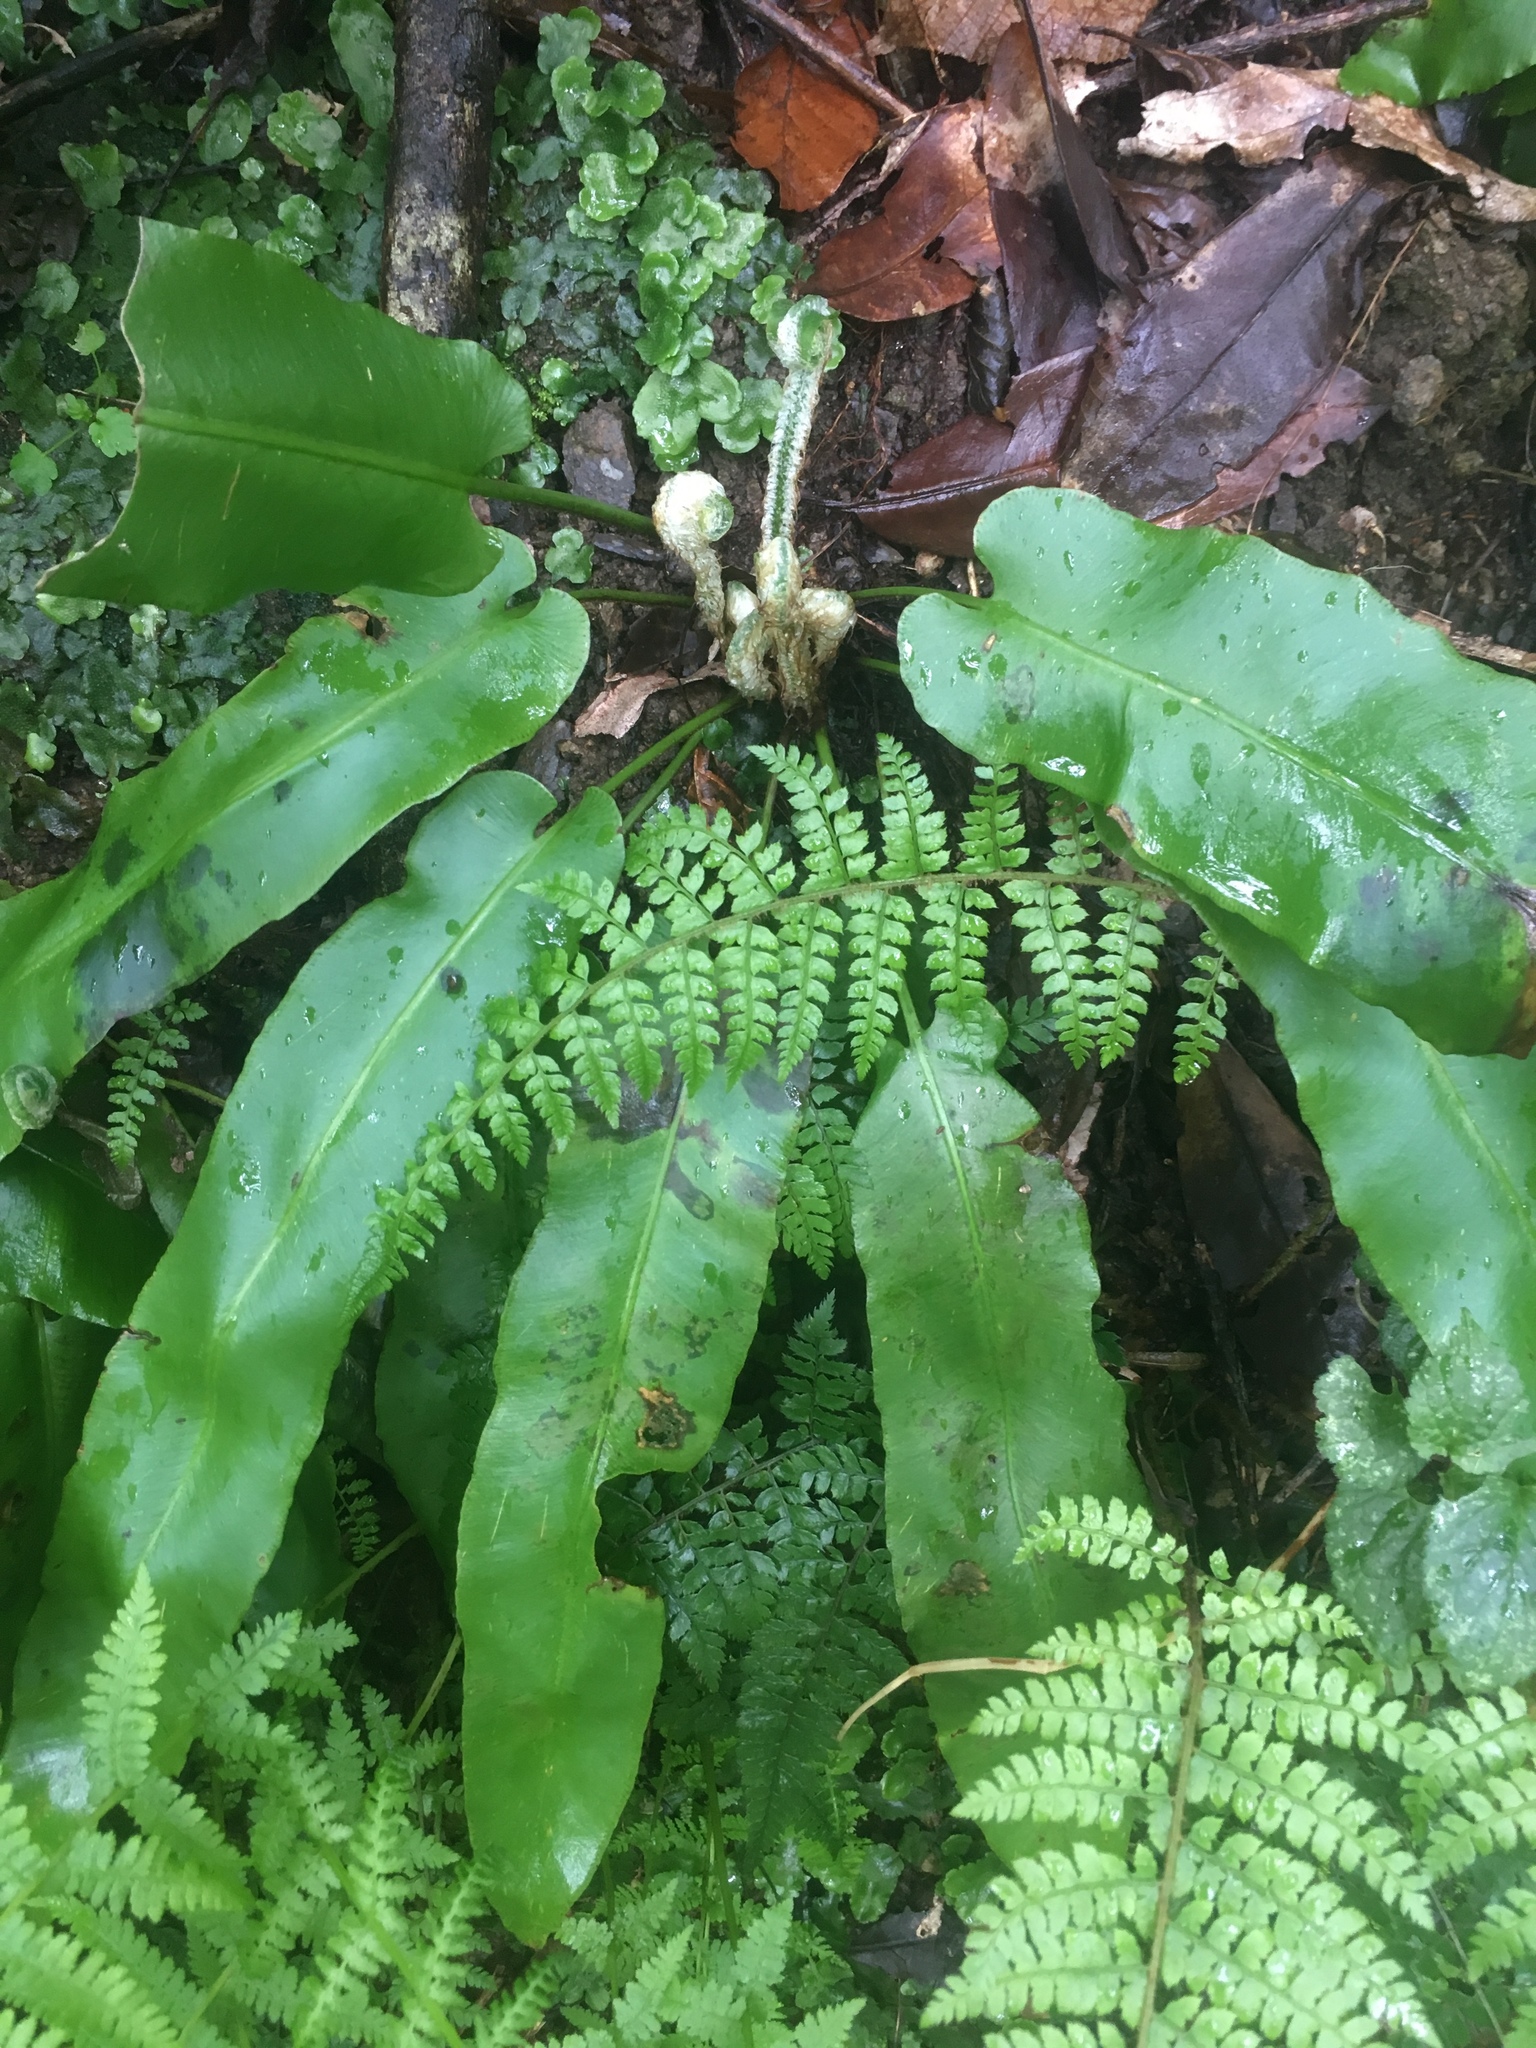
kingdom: Plantae
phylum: Tracheophyta
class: Polypodiopsida
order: Polypodiales
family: Aspleniaceae
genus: Asplenium
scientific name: Asplenium scolopendrium
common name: Hart's-tongue fern
